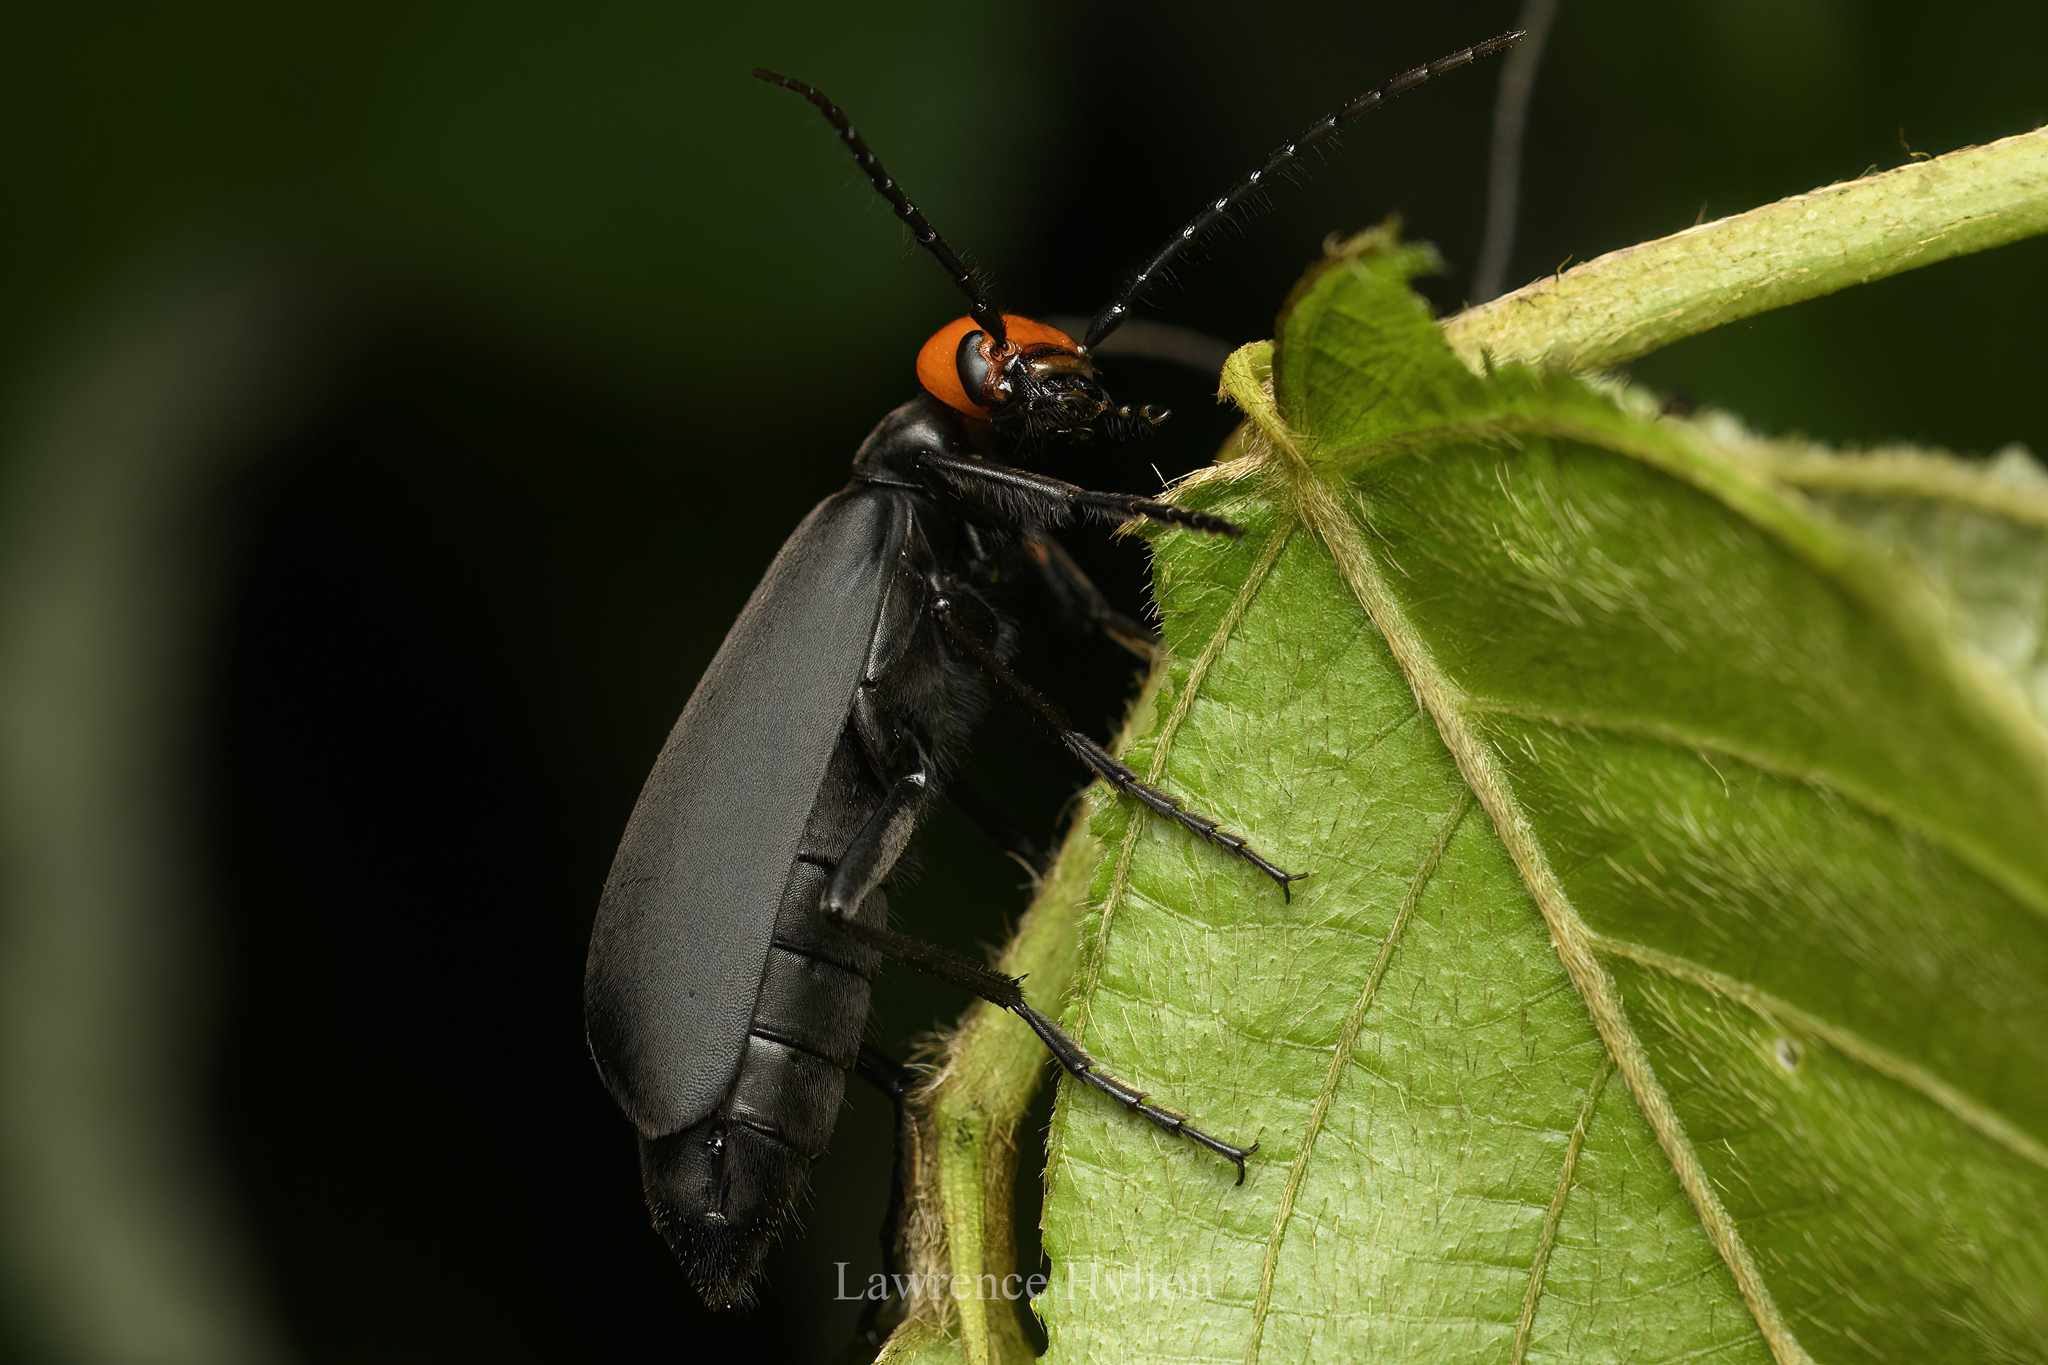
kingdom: Animalia
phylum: Arthropoda
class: Insecta
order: Coleoptera
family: Meloidae
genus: Epicauta
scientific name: Epicauta tibialis
